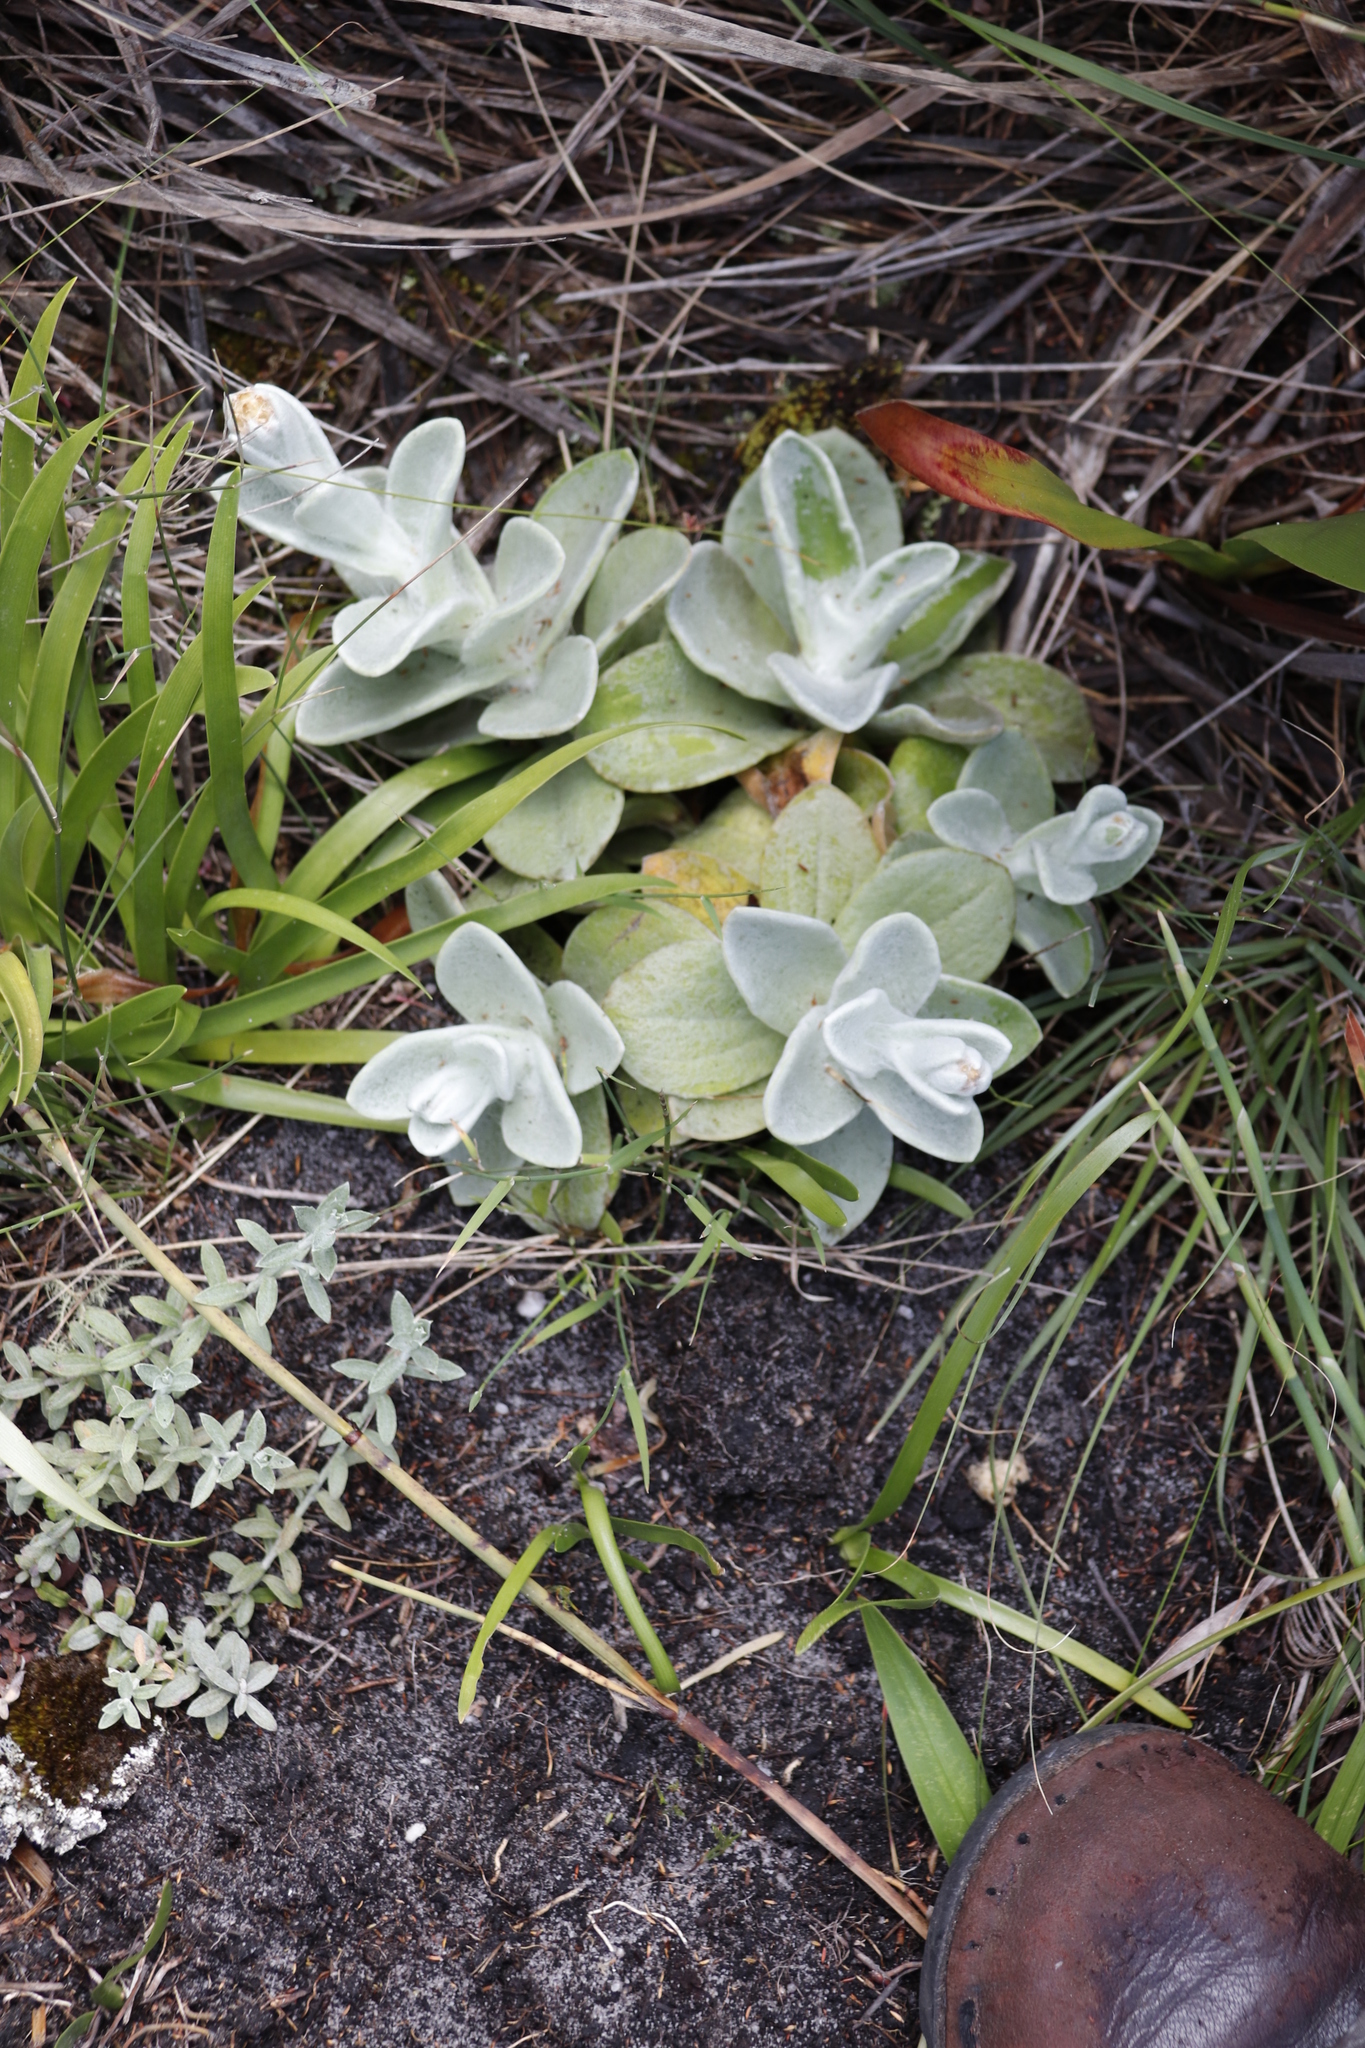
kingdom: Plantae
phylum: Tracheophyta
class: Magnoliopsida
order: Asterales
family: Asteraceae
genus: Helichrysum
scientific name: Helichrysum grandiflorum
